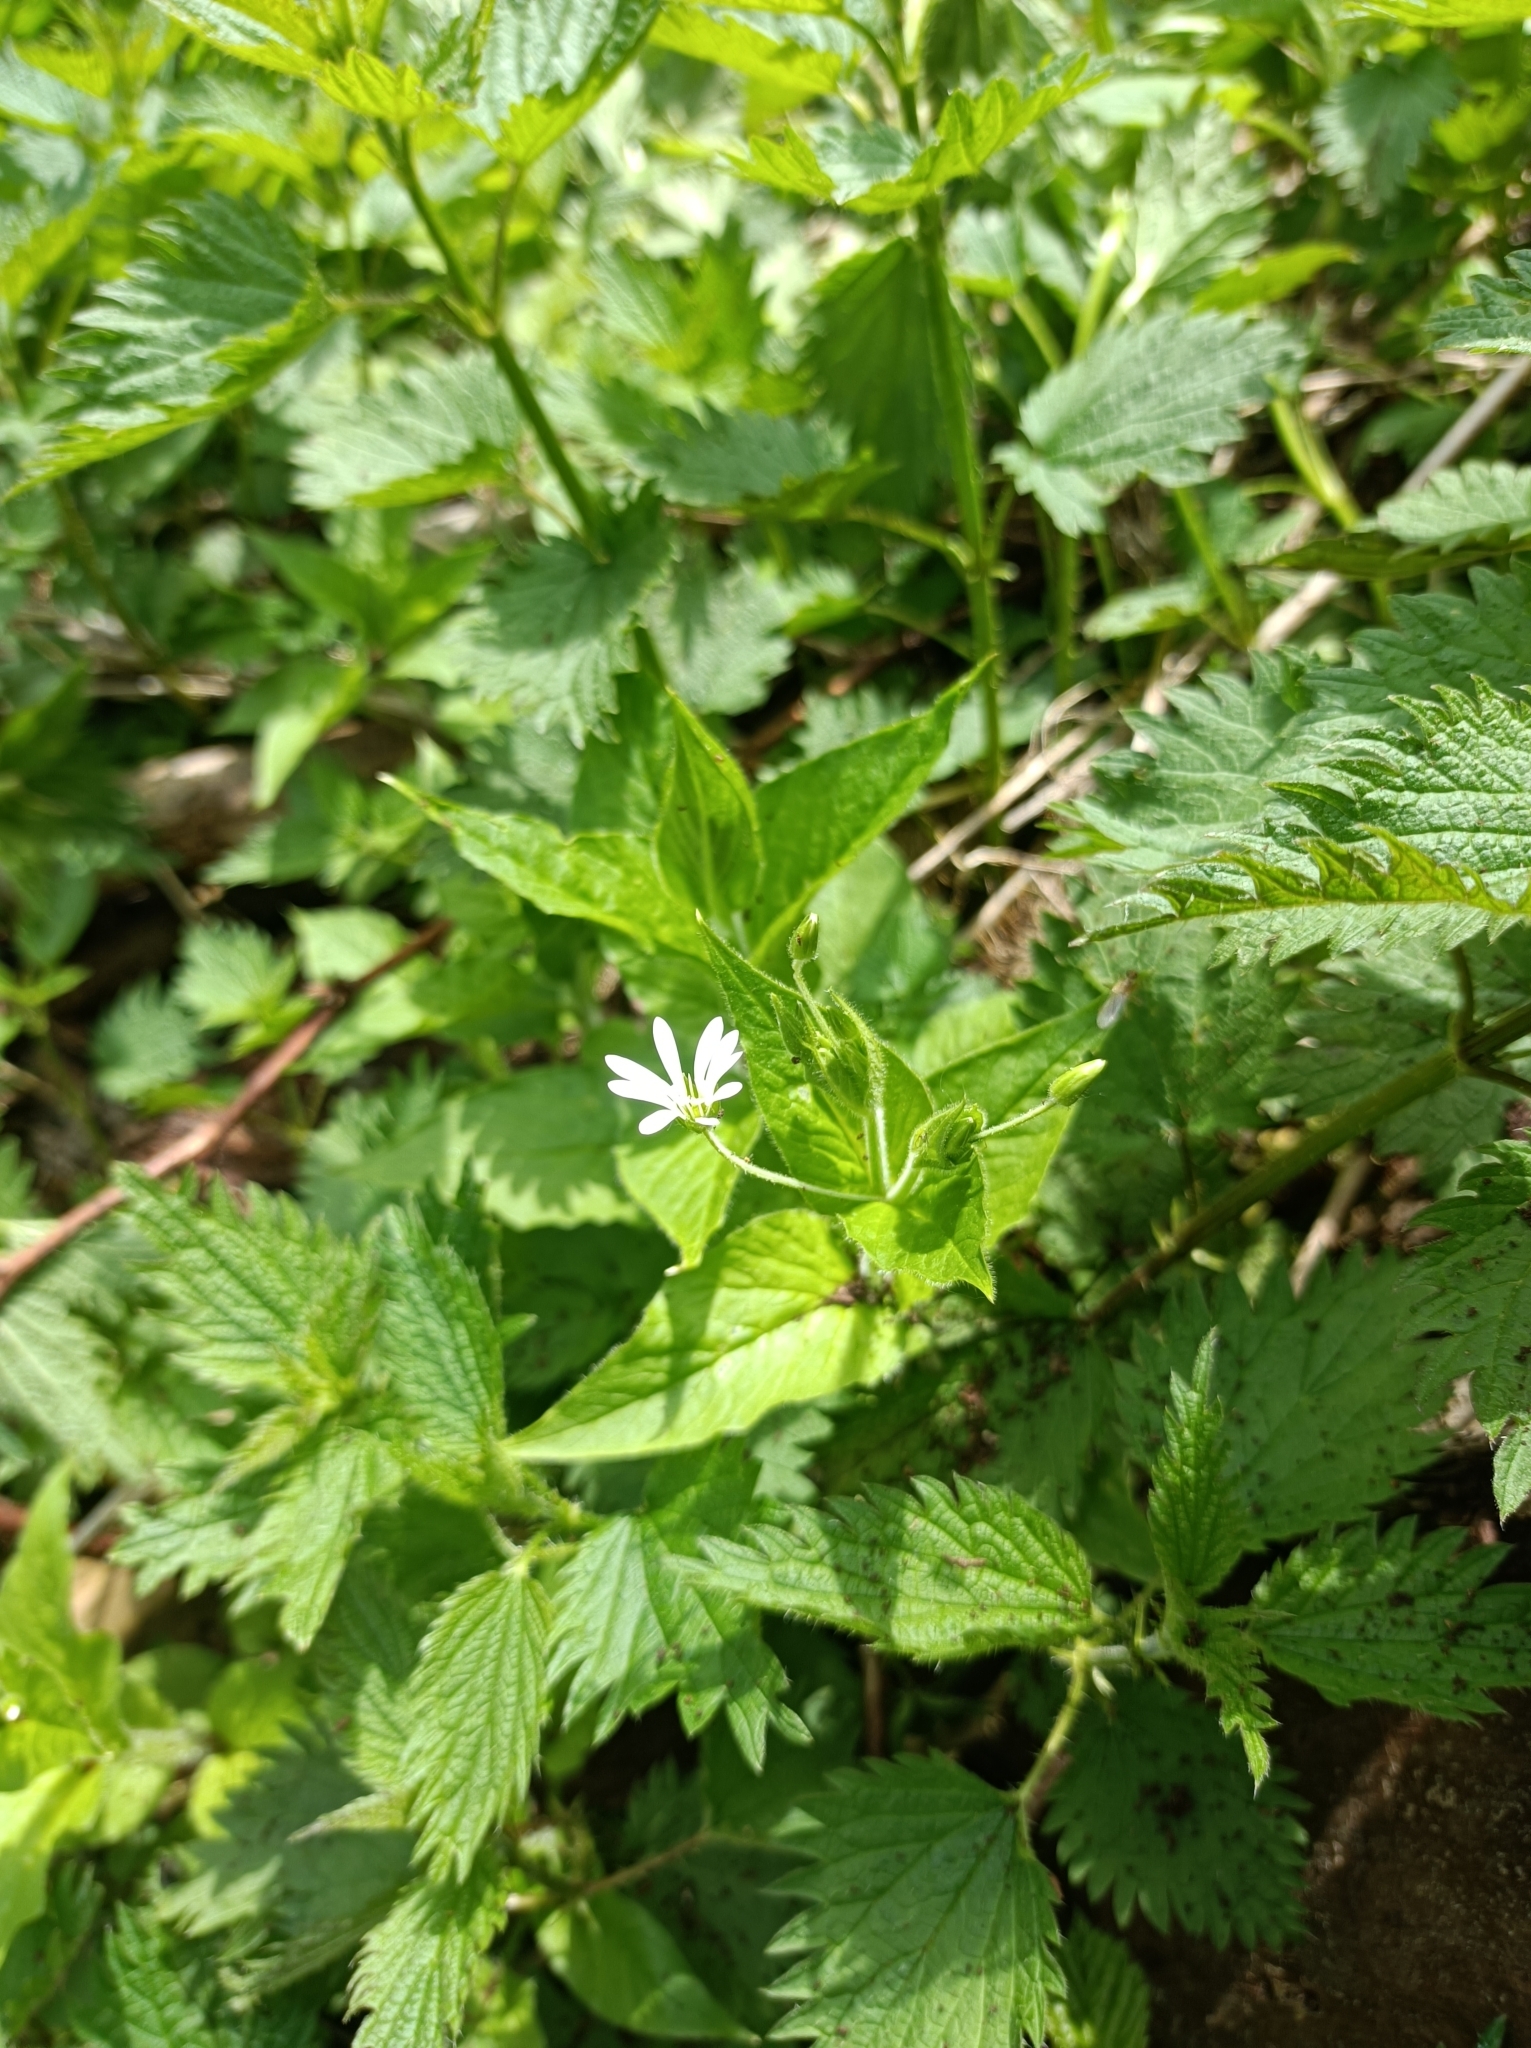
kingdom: Plantae
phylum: Tracheophyta
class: Magnoliopsida
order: Caryophyllales
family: Caryophyllaceae
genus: Stellaria
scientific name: Stellaria nemorum
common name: Wood stitchwort
